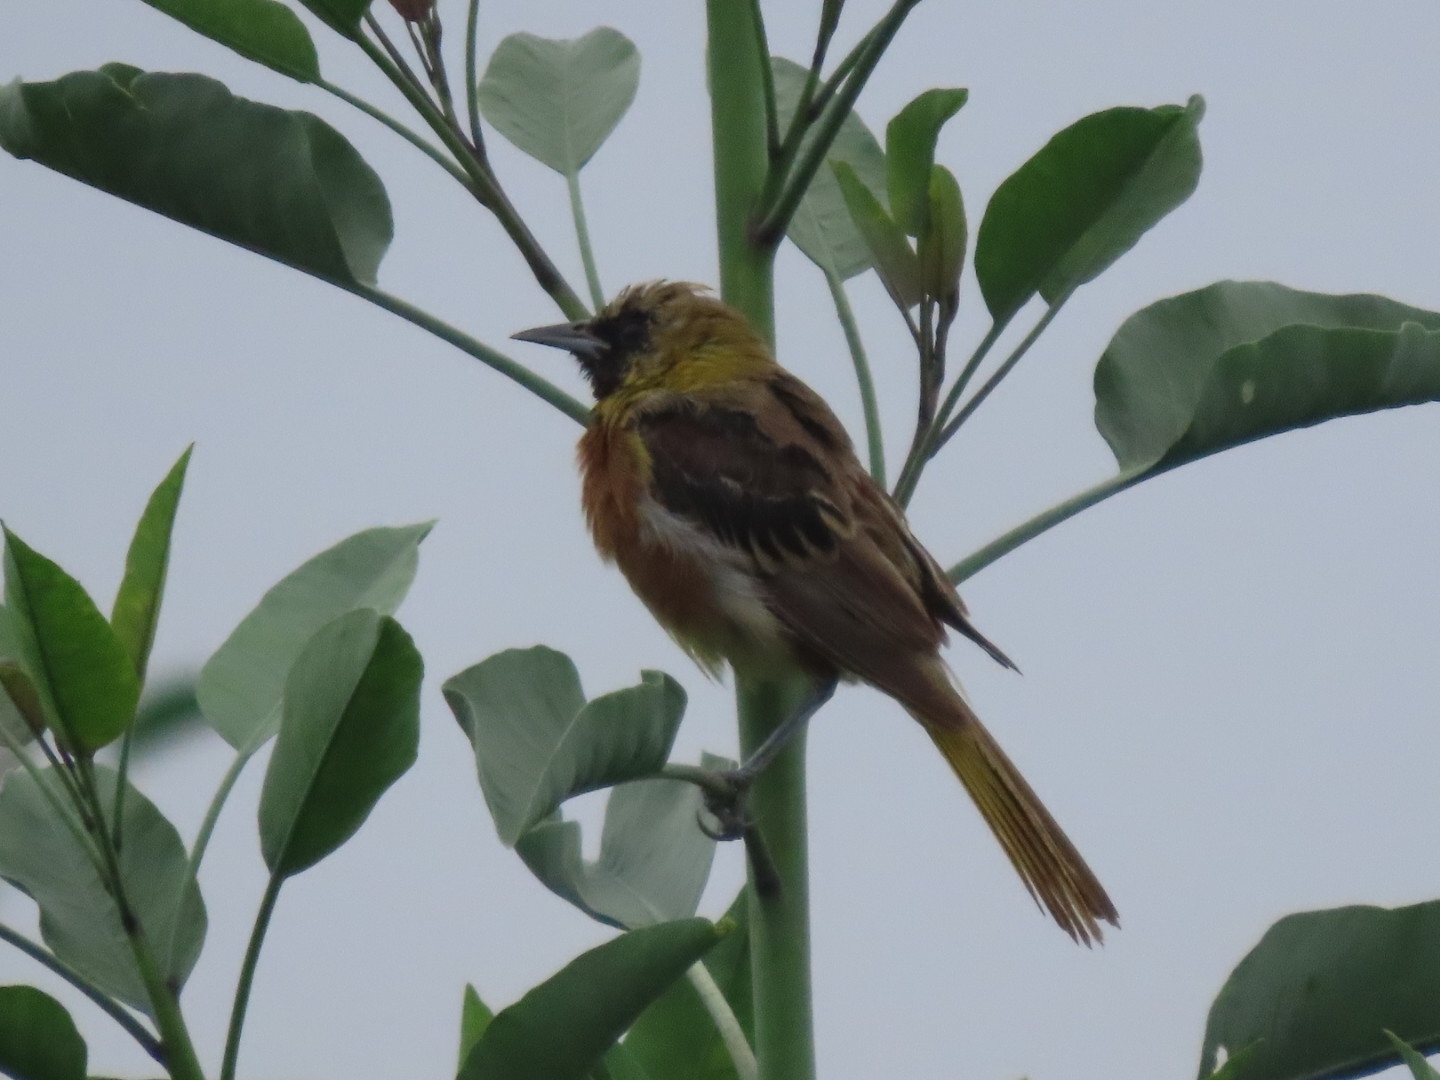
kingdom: Animalia
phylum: Chordata
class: Aves
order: Passeriformes
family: Icteridae
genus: Icterus
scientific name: Icterus spurius
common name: Orchard oriole
